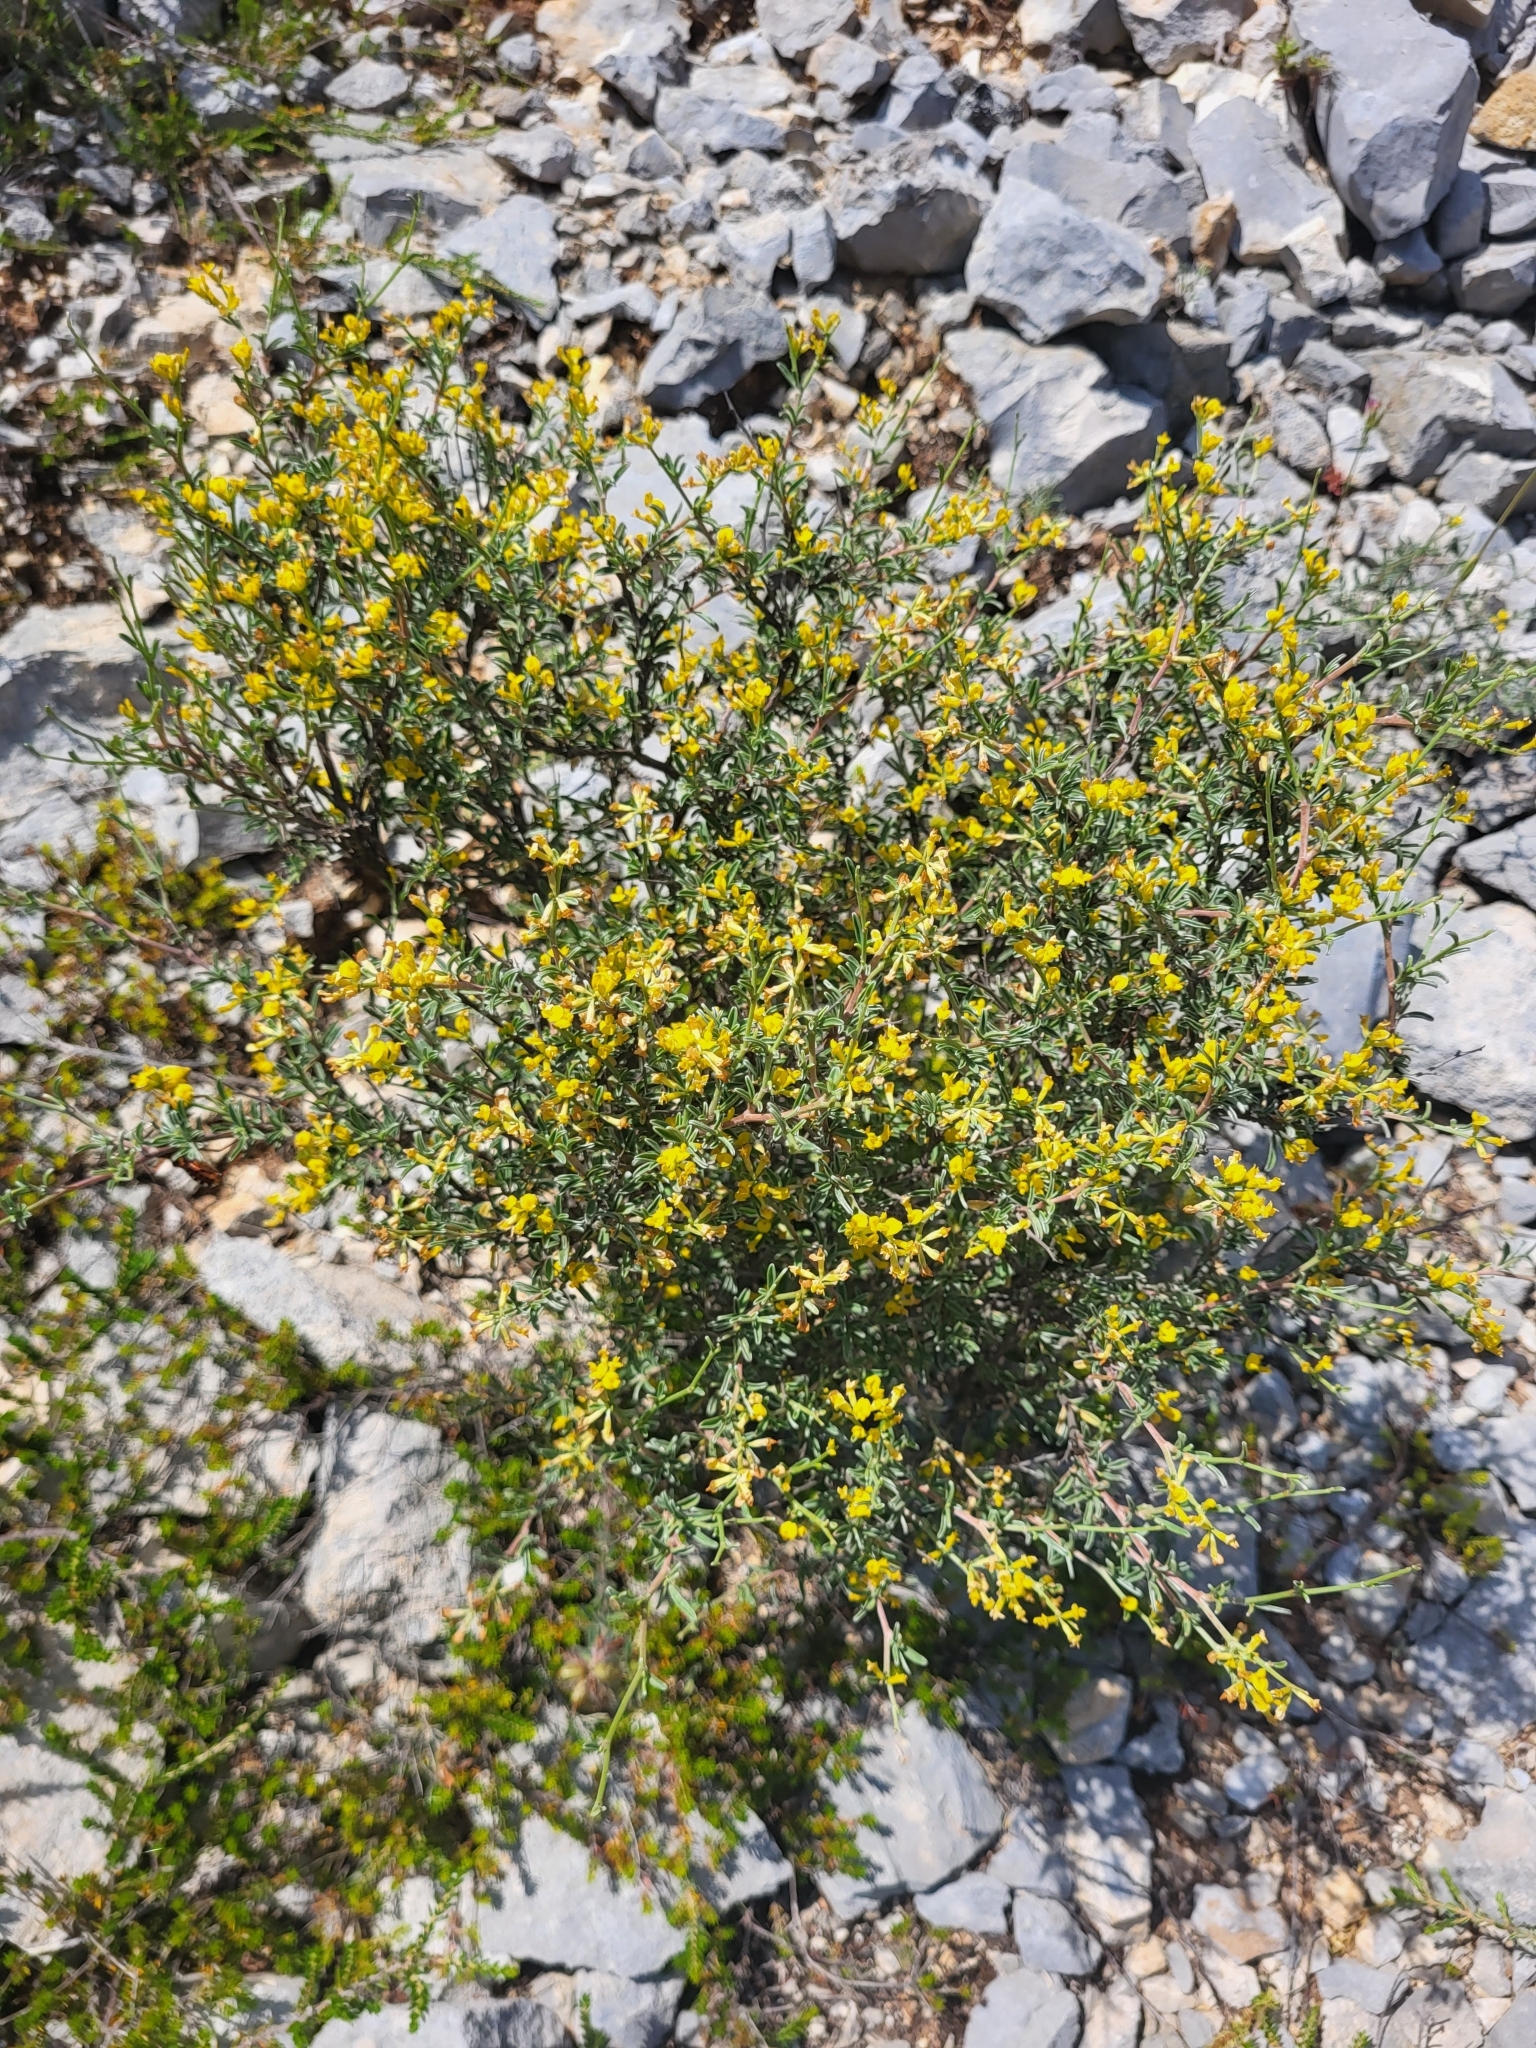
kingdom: Plantae
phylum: Tracheophyta
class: Magnoliopsida
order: Fabales
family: Fabaceae
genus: Anthyllis
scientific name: Anthyllis hermanniae
